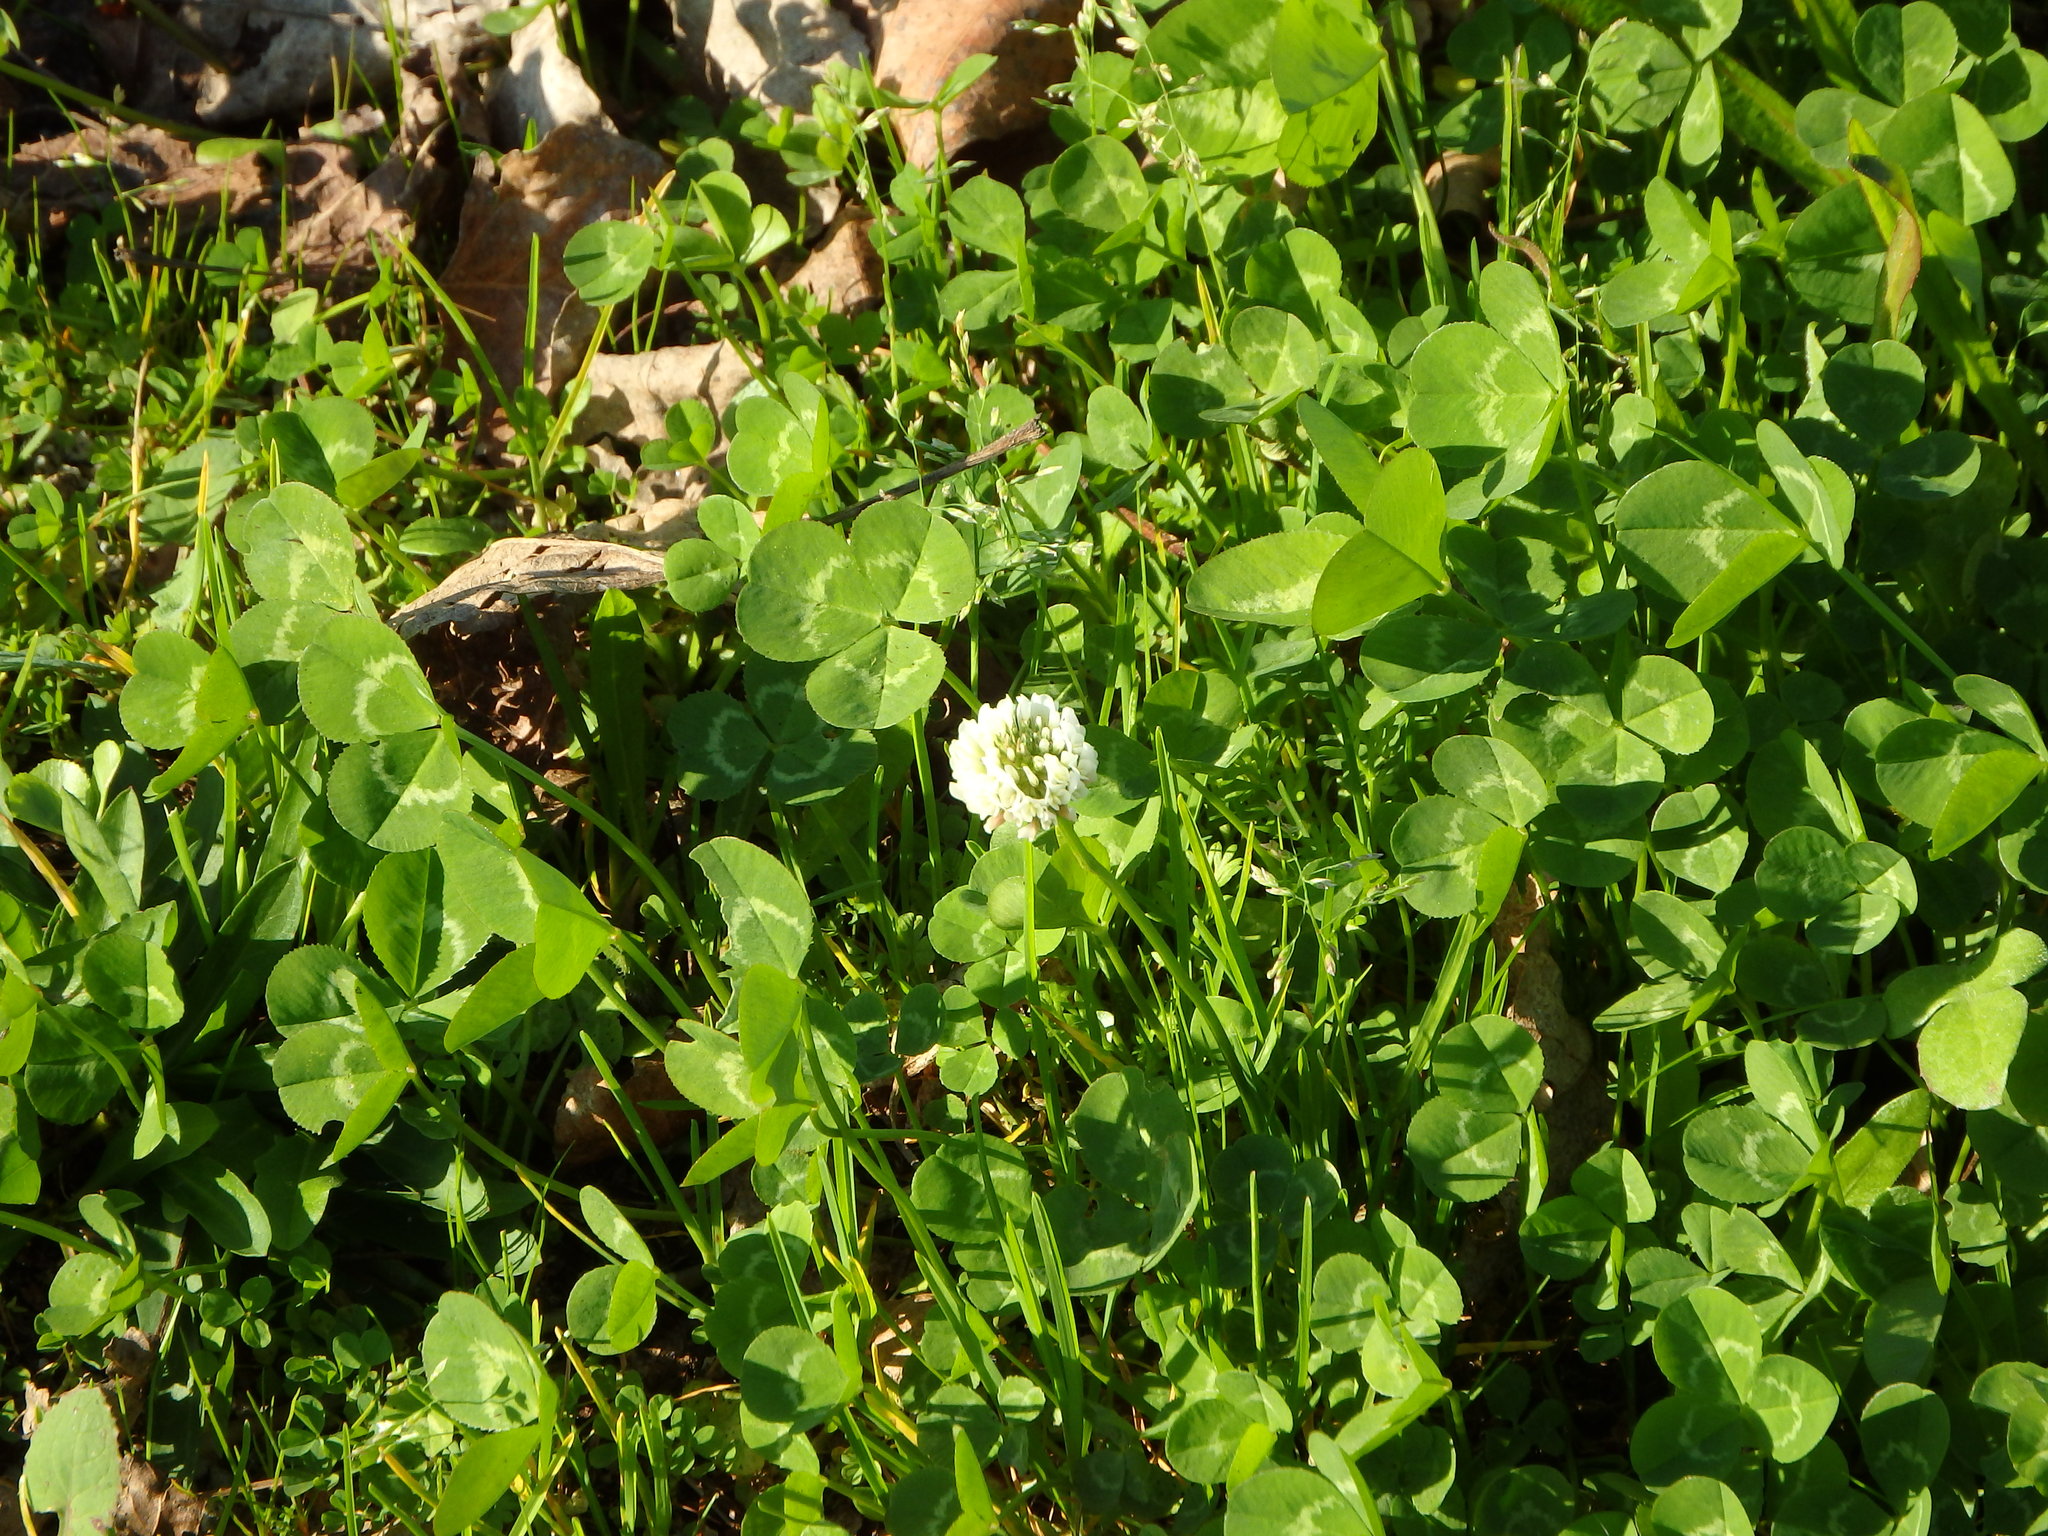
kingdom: Plantae
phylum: Tracheophyta
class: Magnoliopsida
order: Fabales
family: Fabaceae
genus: Trifolium
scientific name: Trifolium repens
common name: White clover
